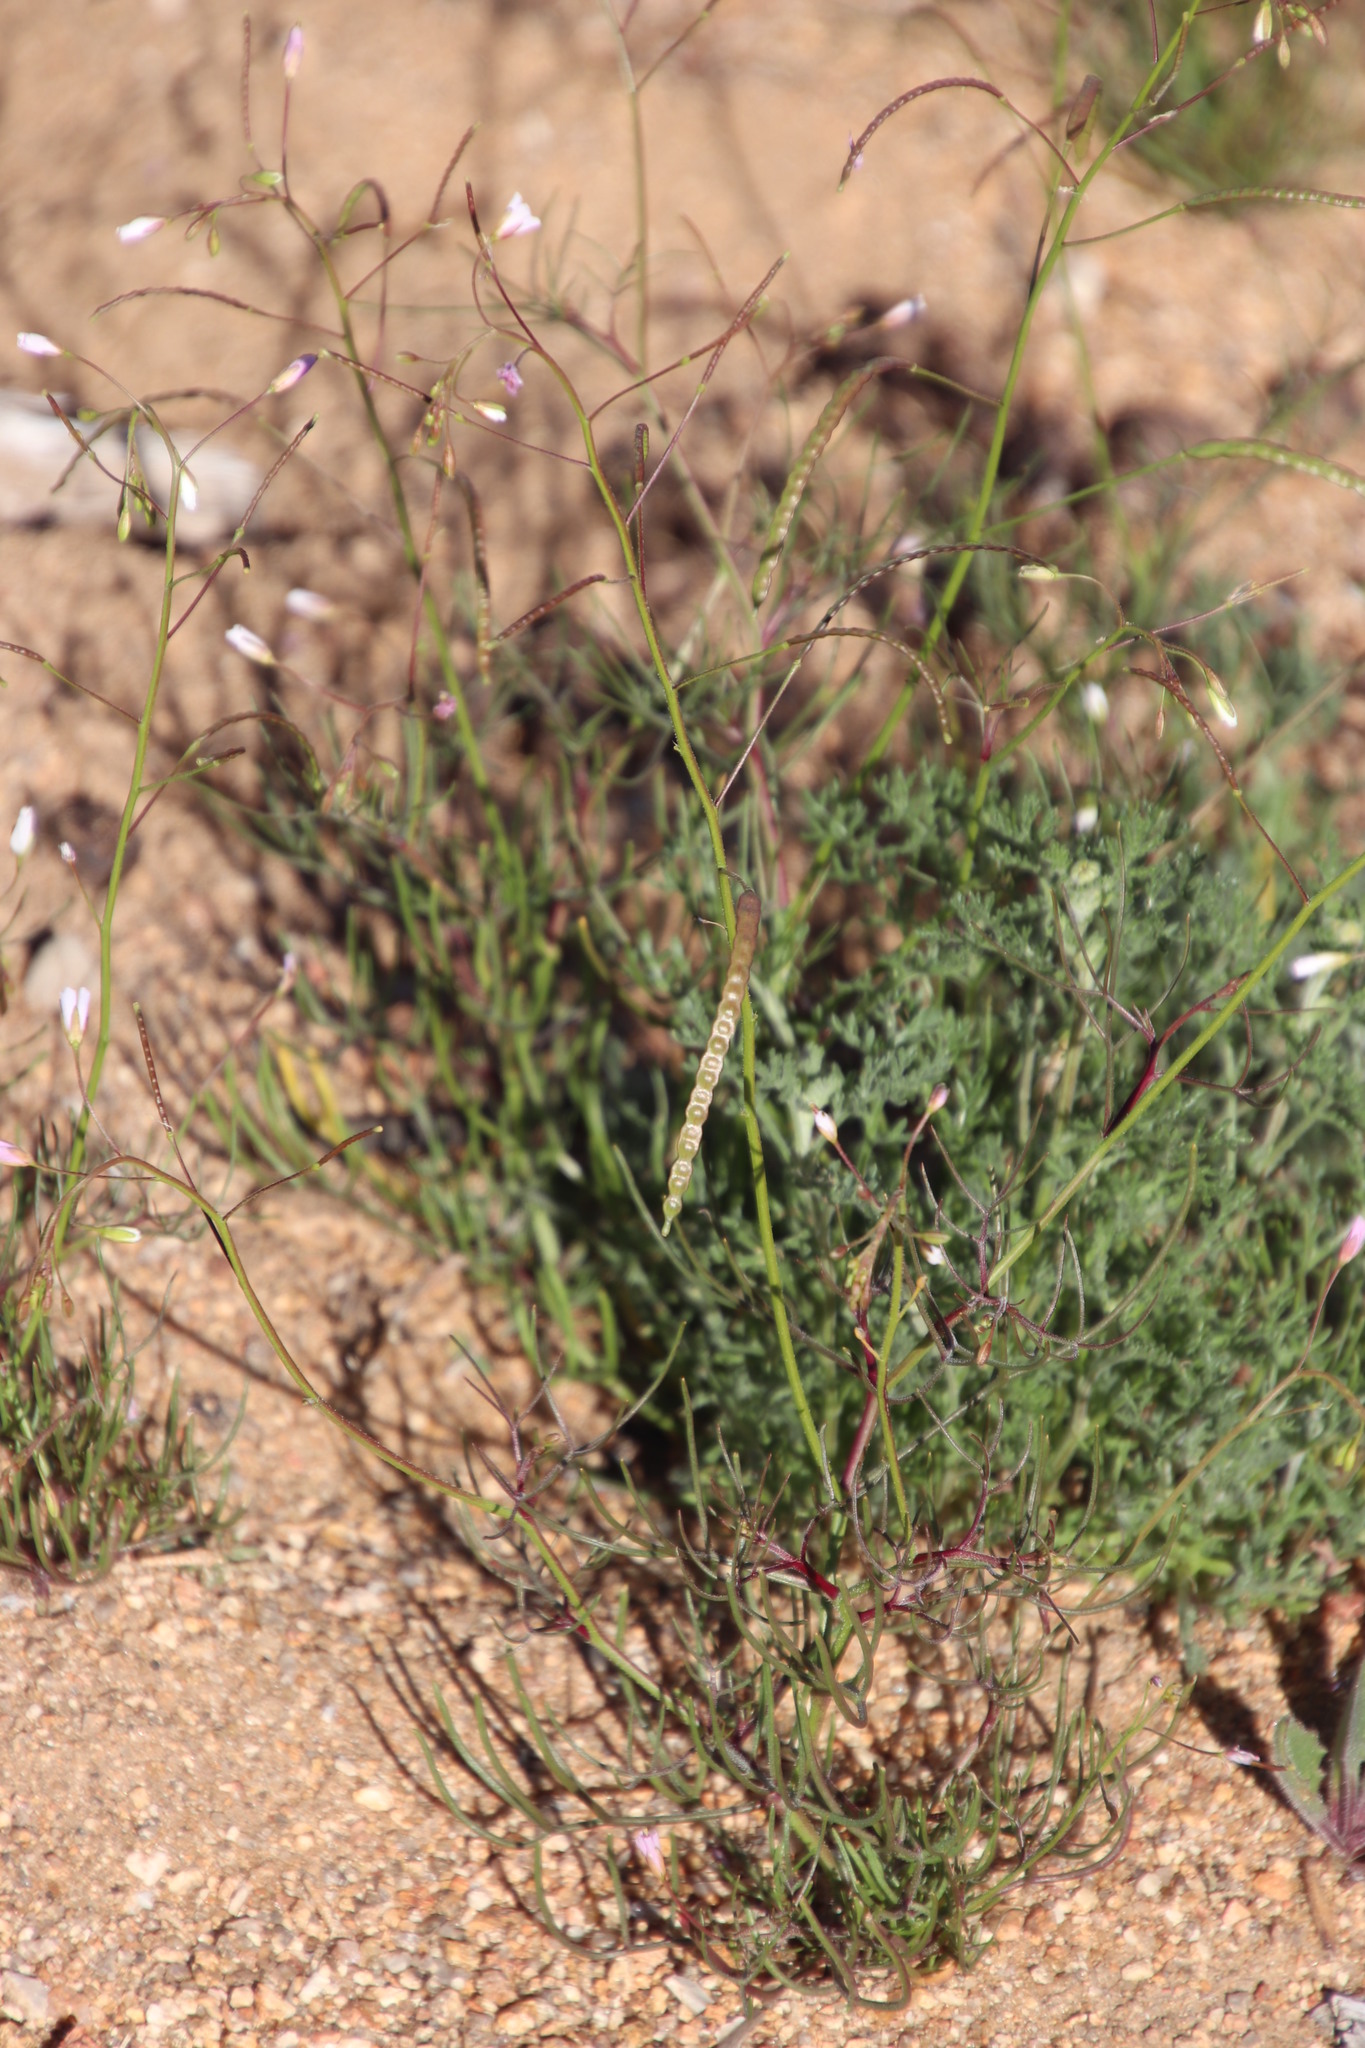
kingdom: Plantae
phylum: Tracheophyta
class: Magnoliopsida
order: Brassicales
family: Brassicaceae
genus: Heliophila
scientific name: Heliophila variabilis
